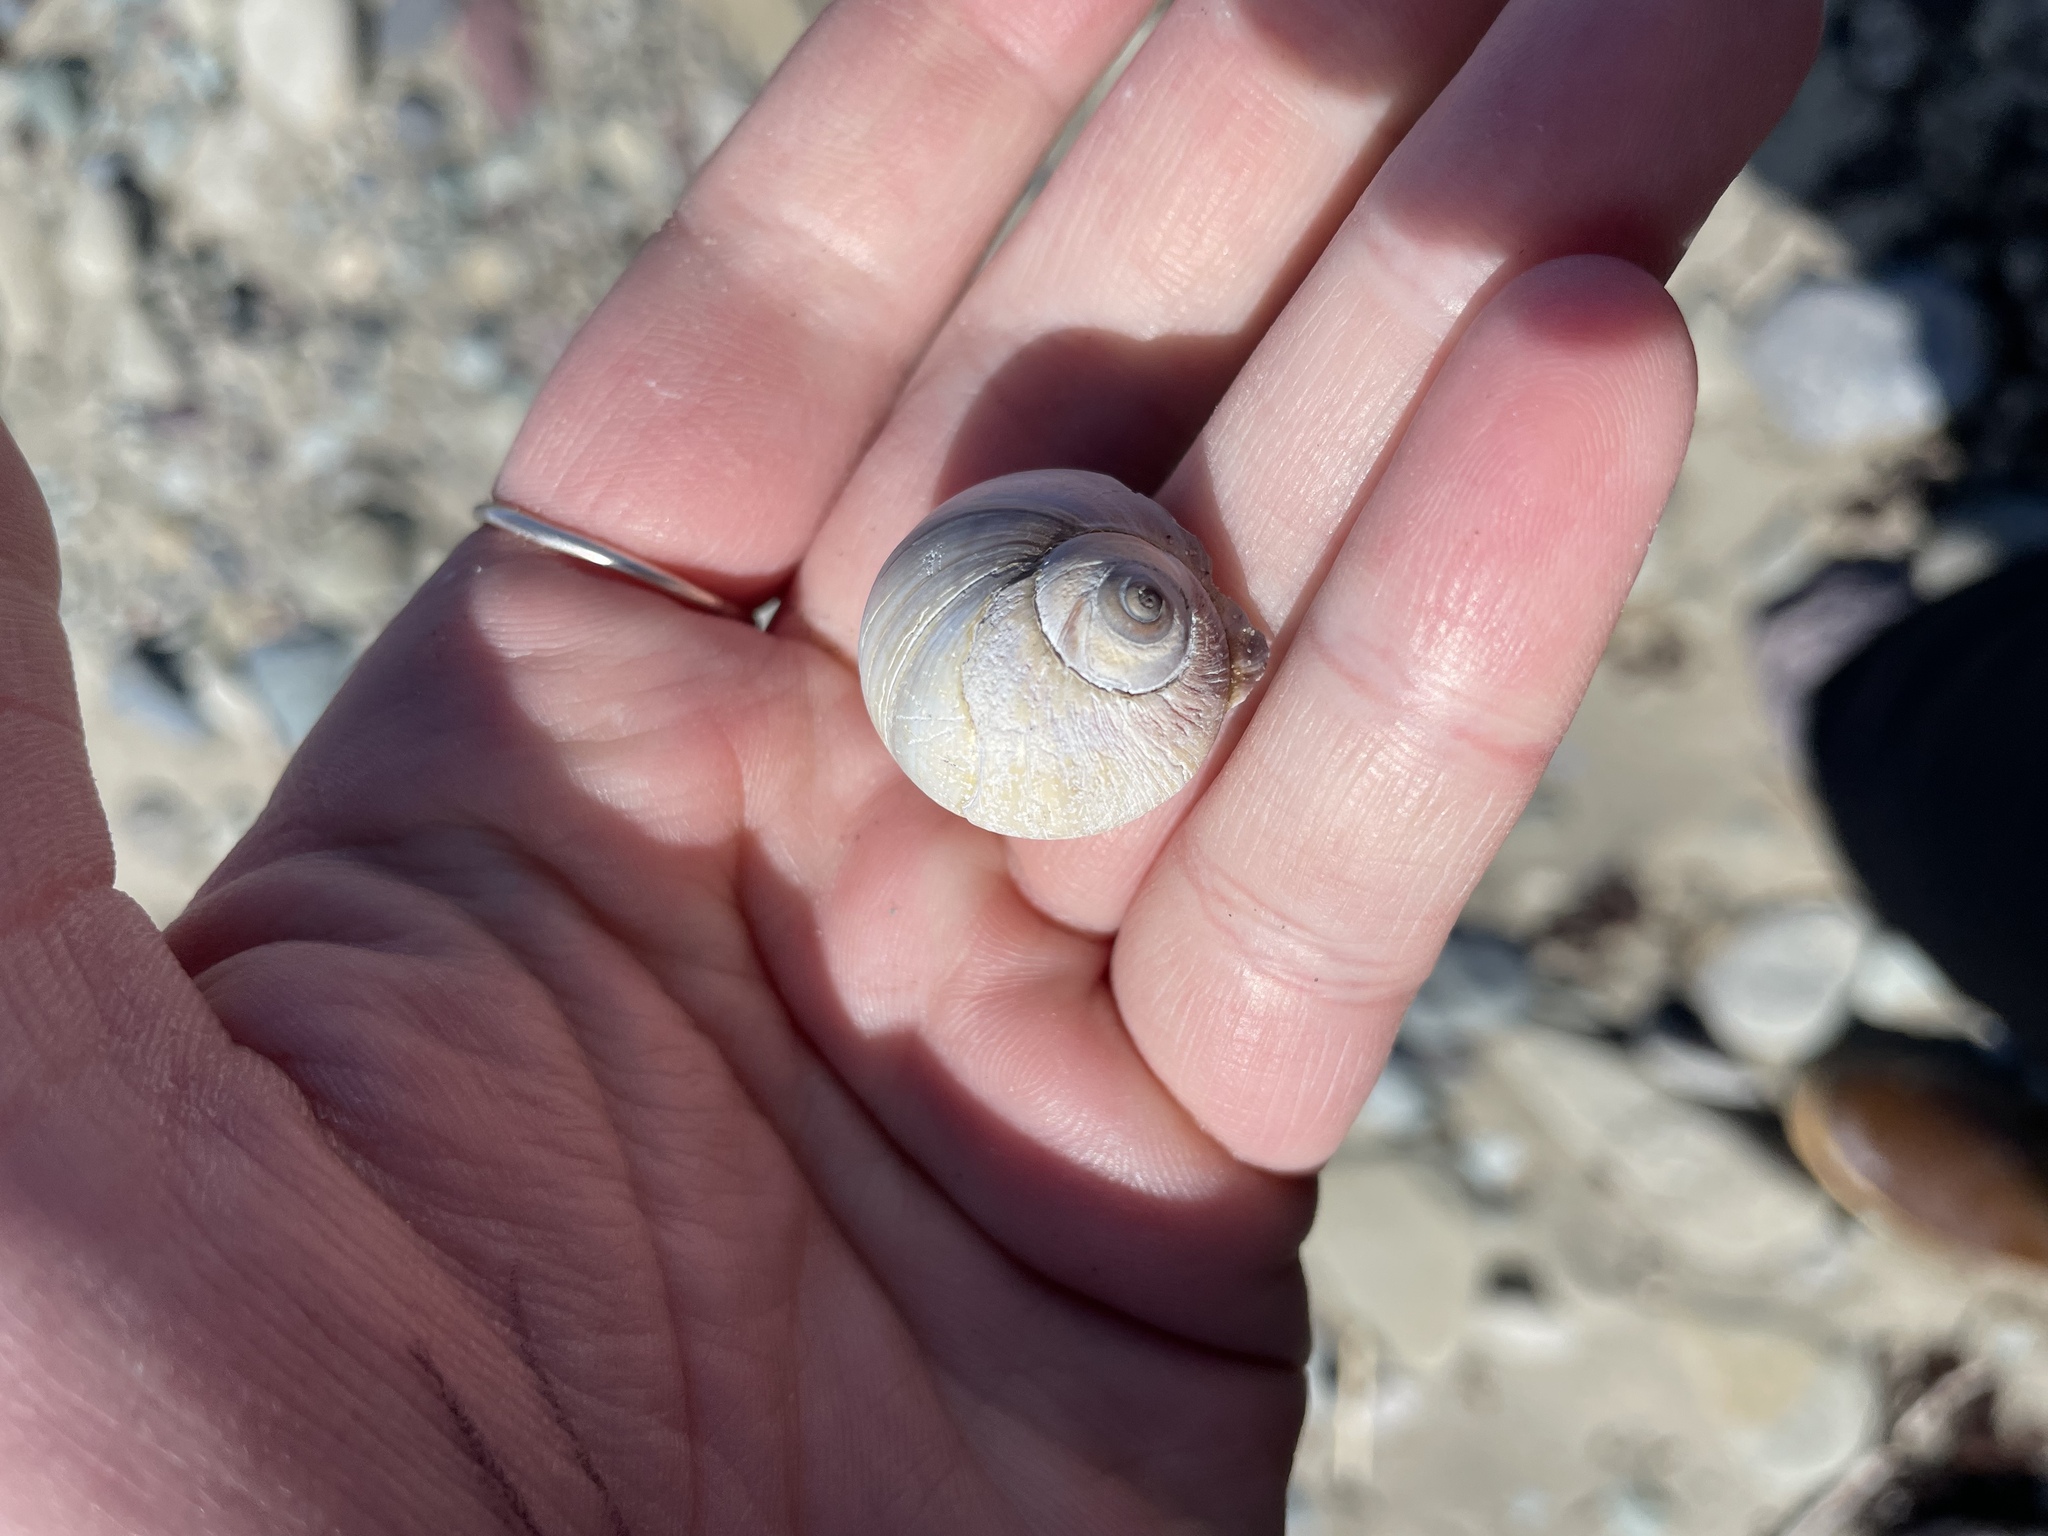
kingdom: Animalia
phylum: Mollusca
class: Gastropoda
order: Littorinimorpha
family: Naticidae
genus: Euspira
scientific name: Euspira heros
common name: Common northern moonsnail
